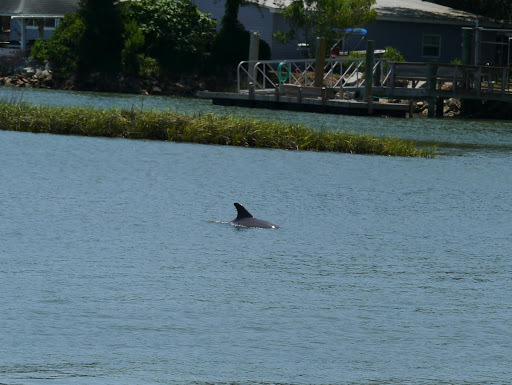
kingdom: Animalia
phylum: Chordata
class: Mammalia
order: Cetacea
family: Delphinidae
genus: Tursiops
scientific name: Tursiops truncatus
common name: Bottlenose dolphin
